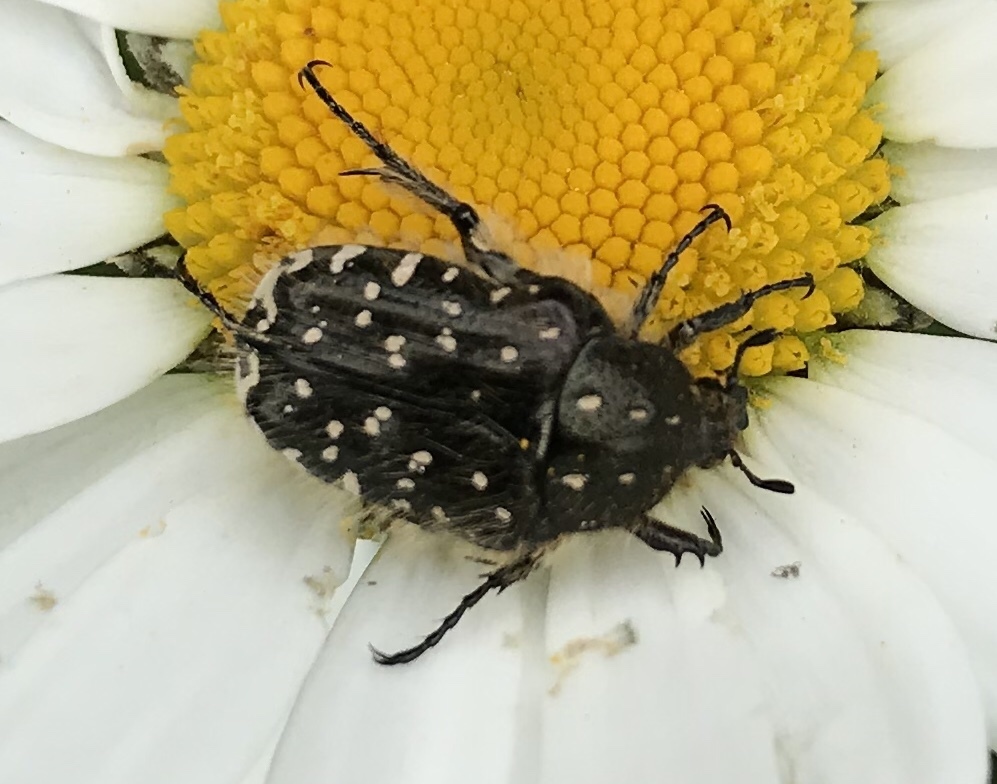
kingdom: Animalia
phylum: Arthropoda
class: Insecta
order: Coleoptera
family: Scarabaeidae
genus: Oxythyrea
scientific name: Oxythyrea funesta
